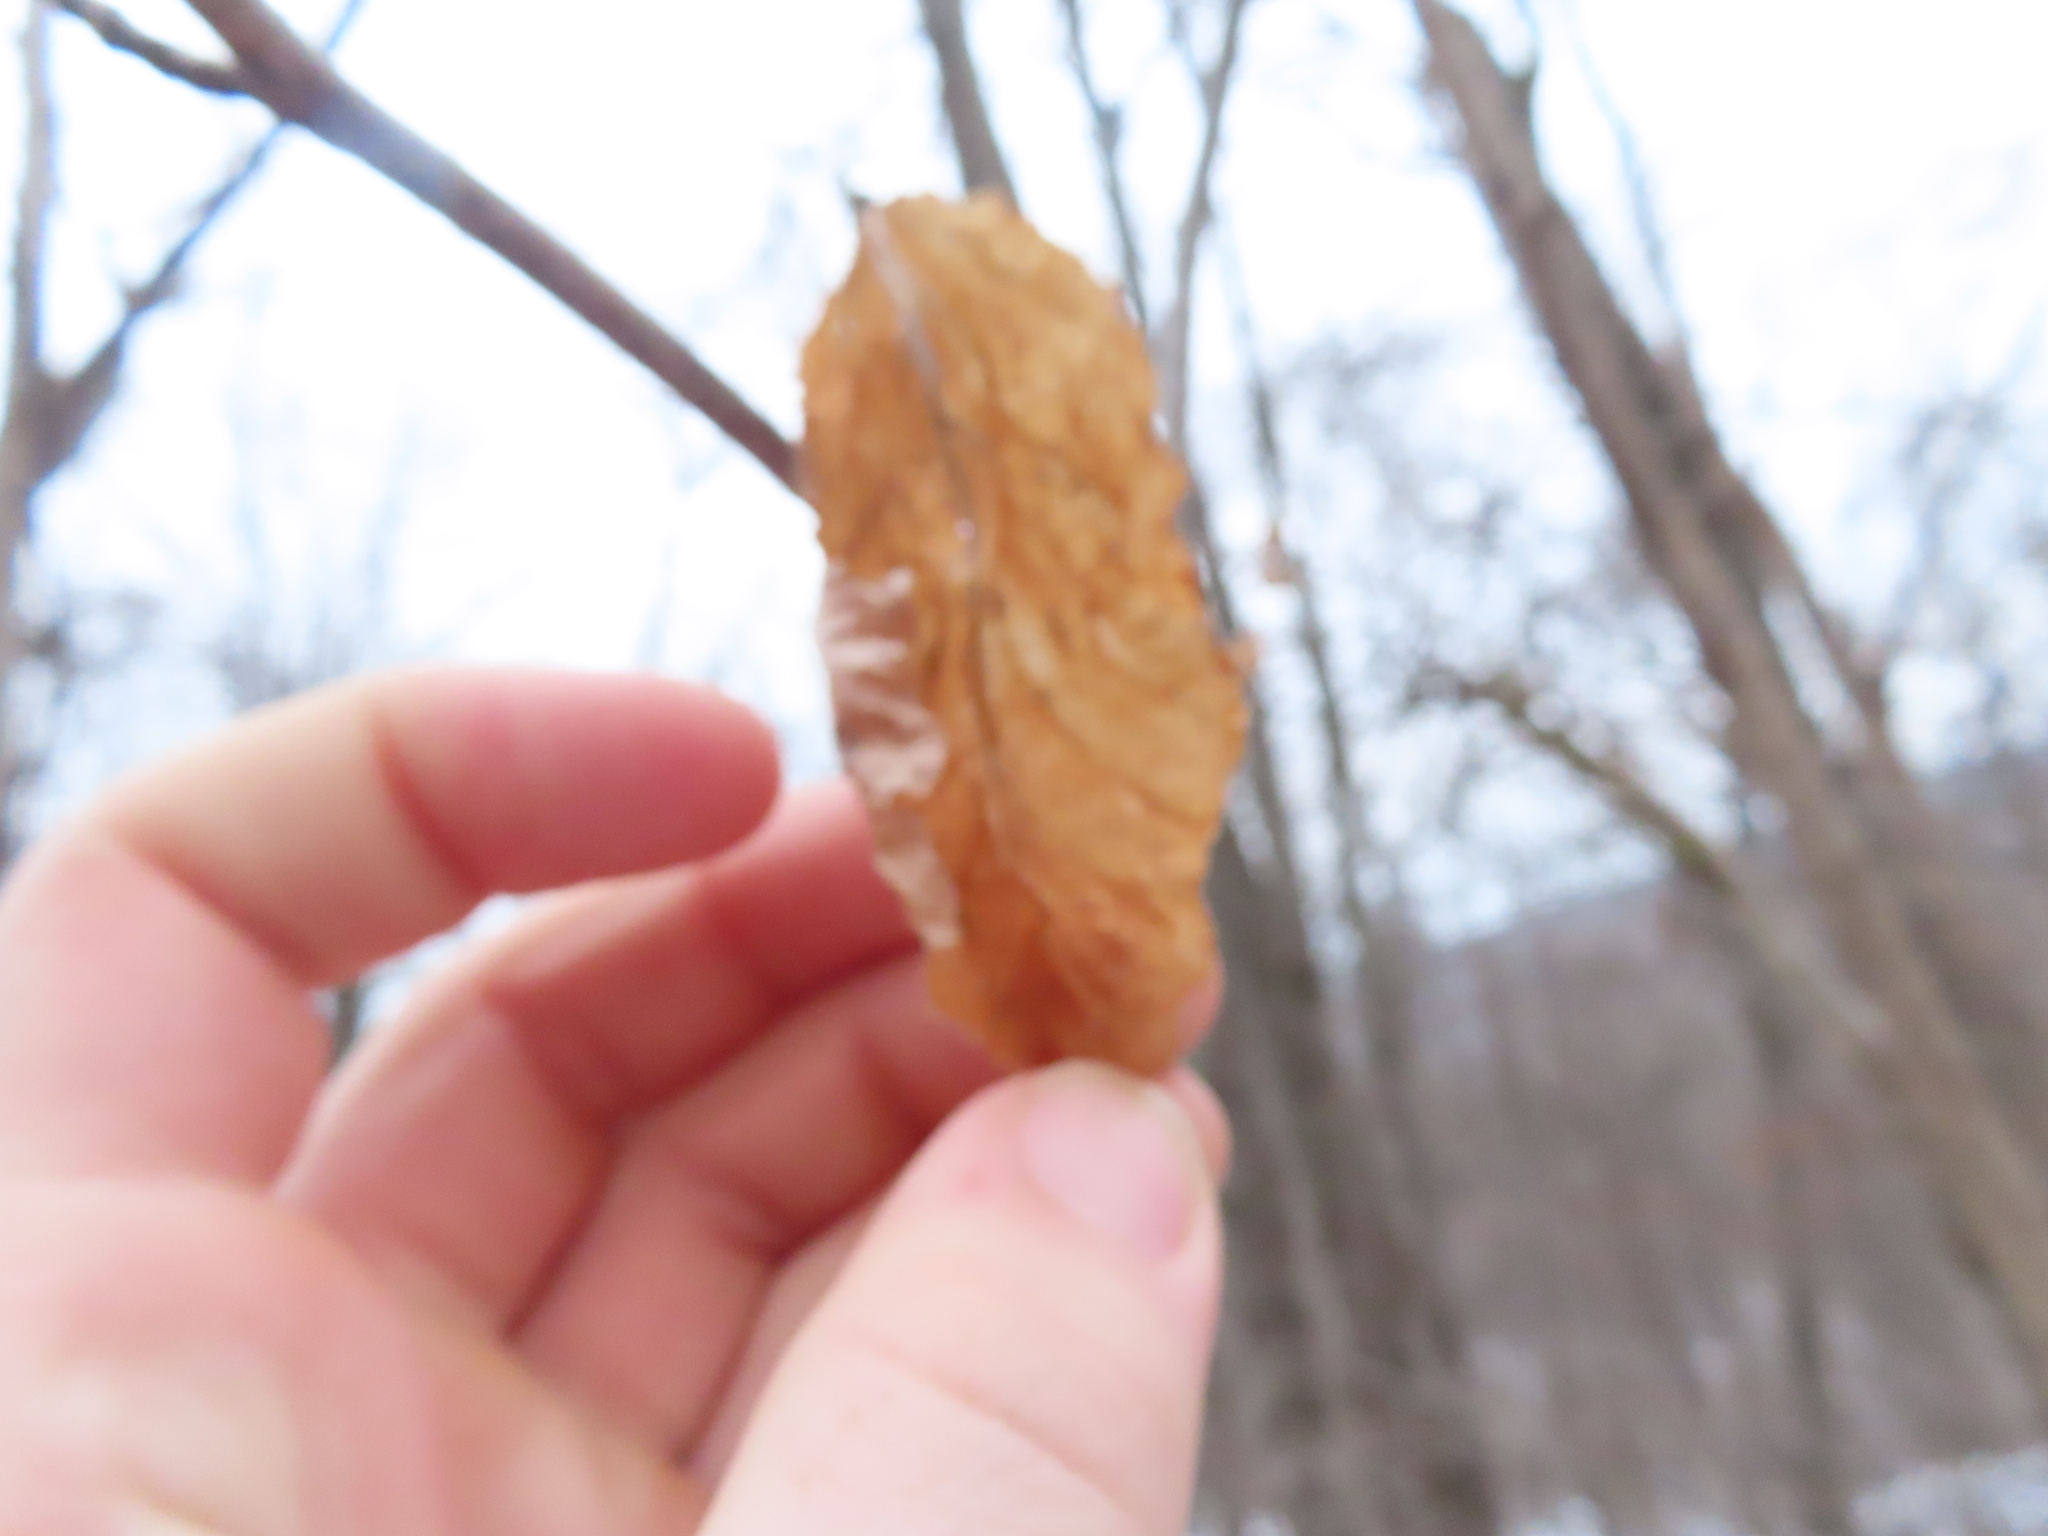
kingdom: Plantae
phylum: Tracheophyta
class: Magnoliopsida
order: Fagales
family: Betulaceae
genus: Ostrya
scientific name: Ostrya virginiana
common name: Ironwood
